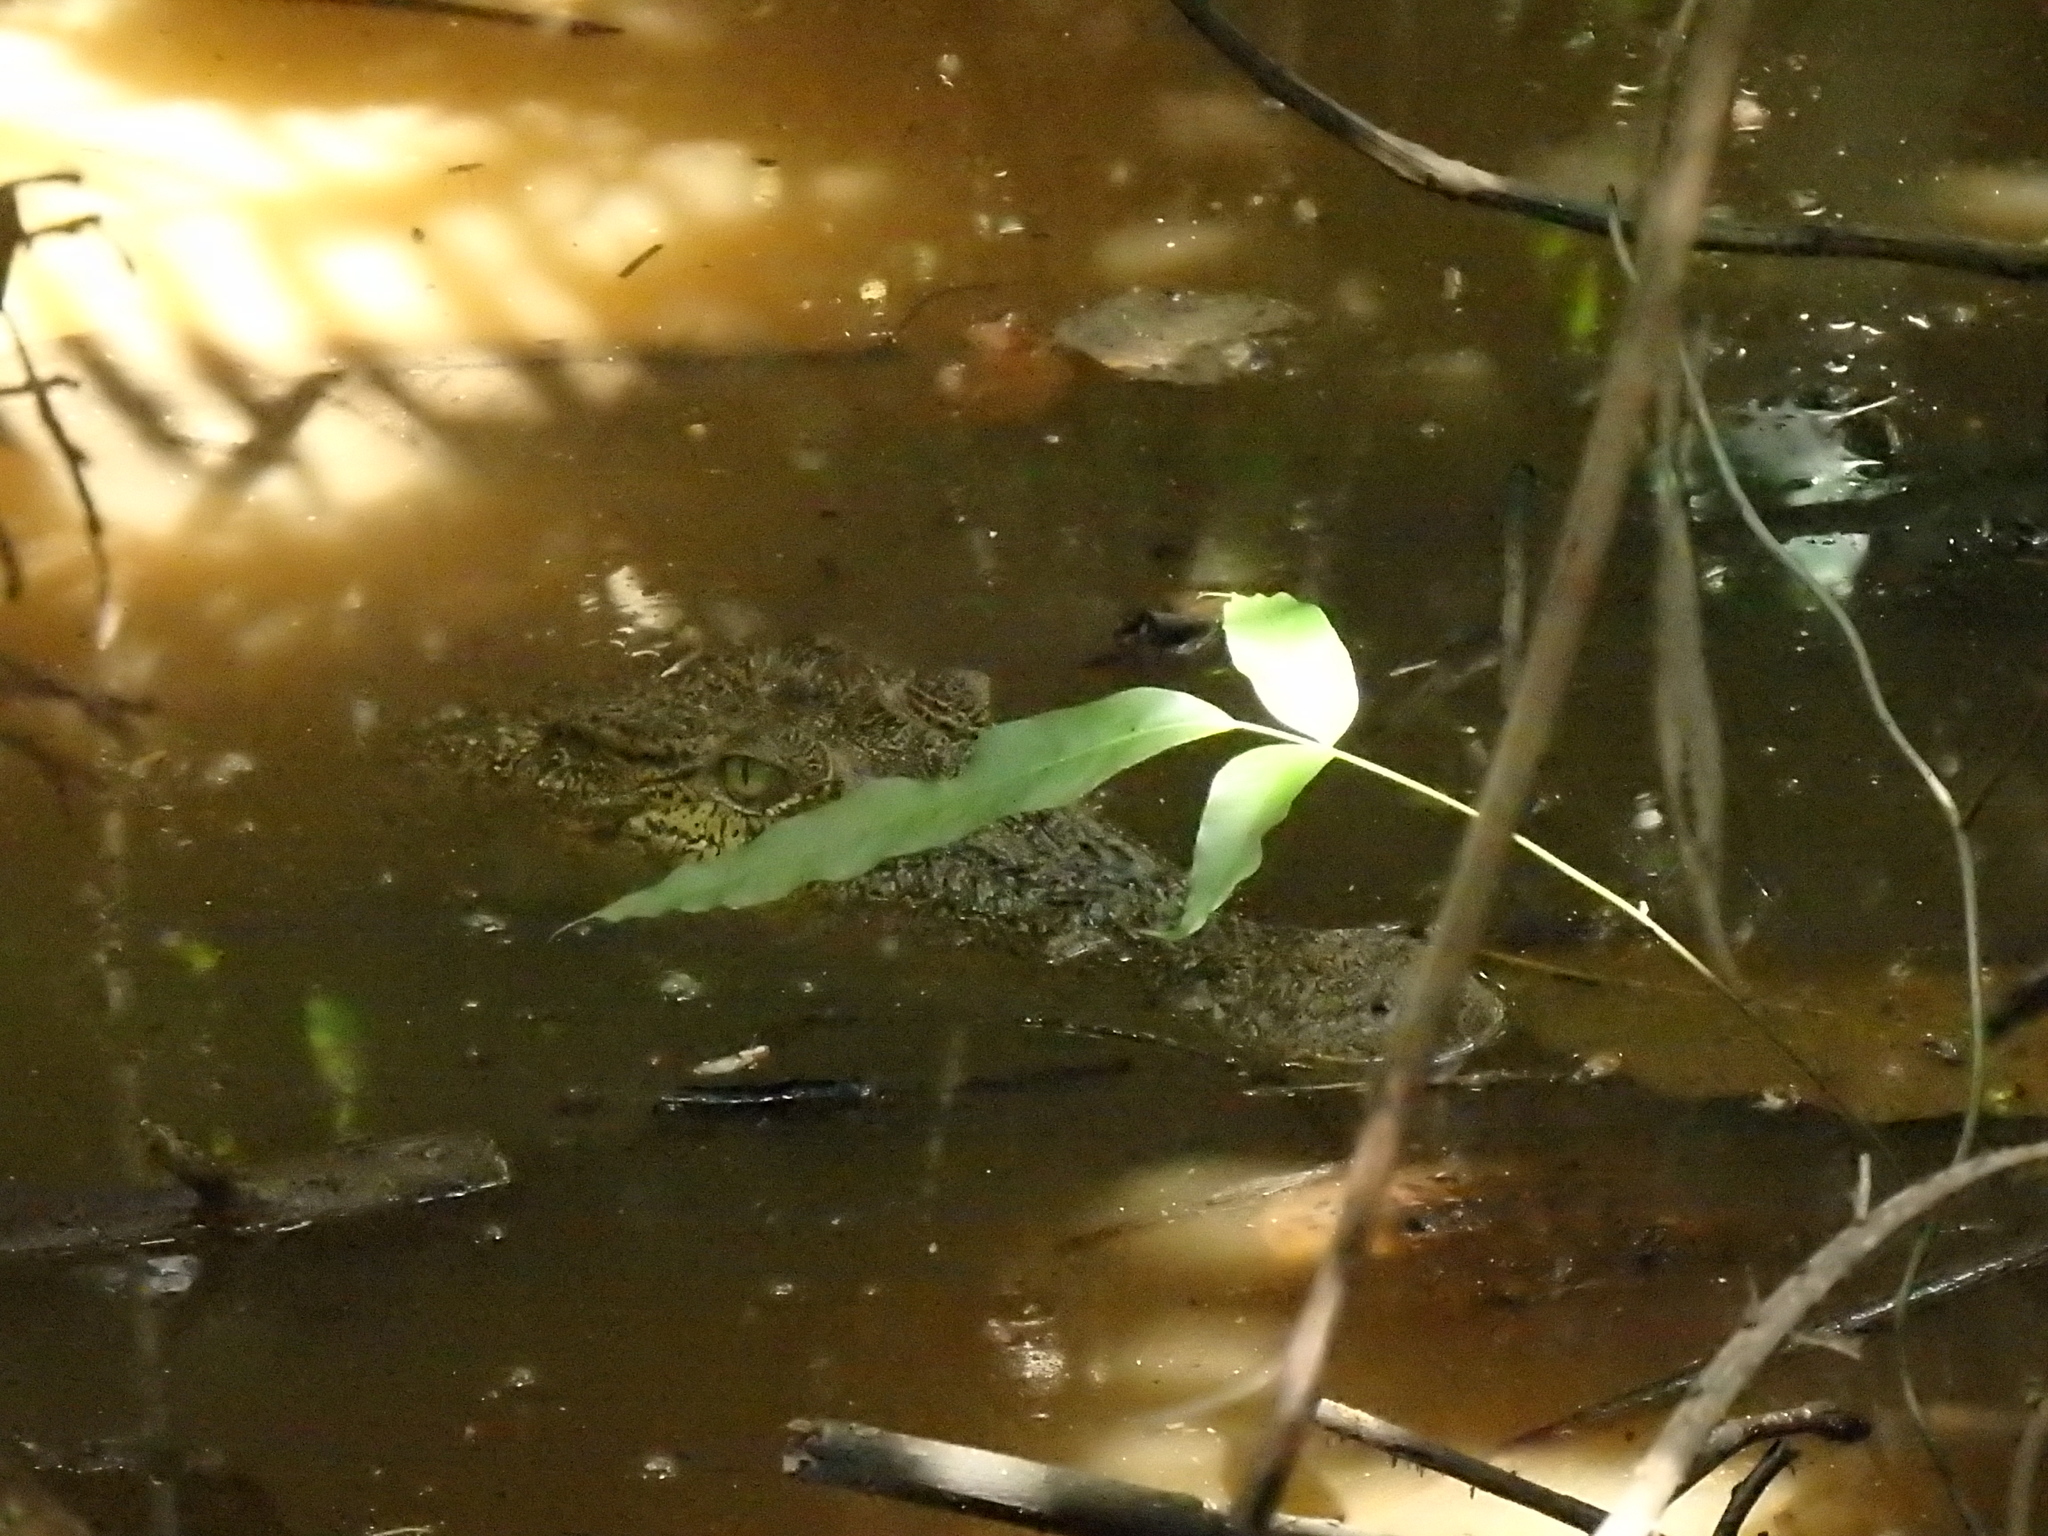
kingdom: Animalia
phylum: Chordata
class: Crocodylia
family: Crocodylidae
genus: Crocodylus
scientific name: Crocodylus porosus
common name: Saltwater crocodile
